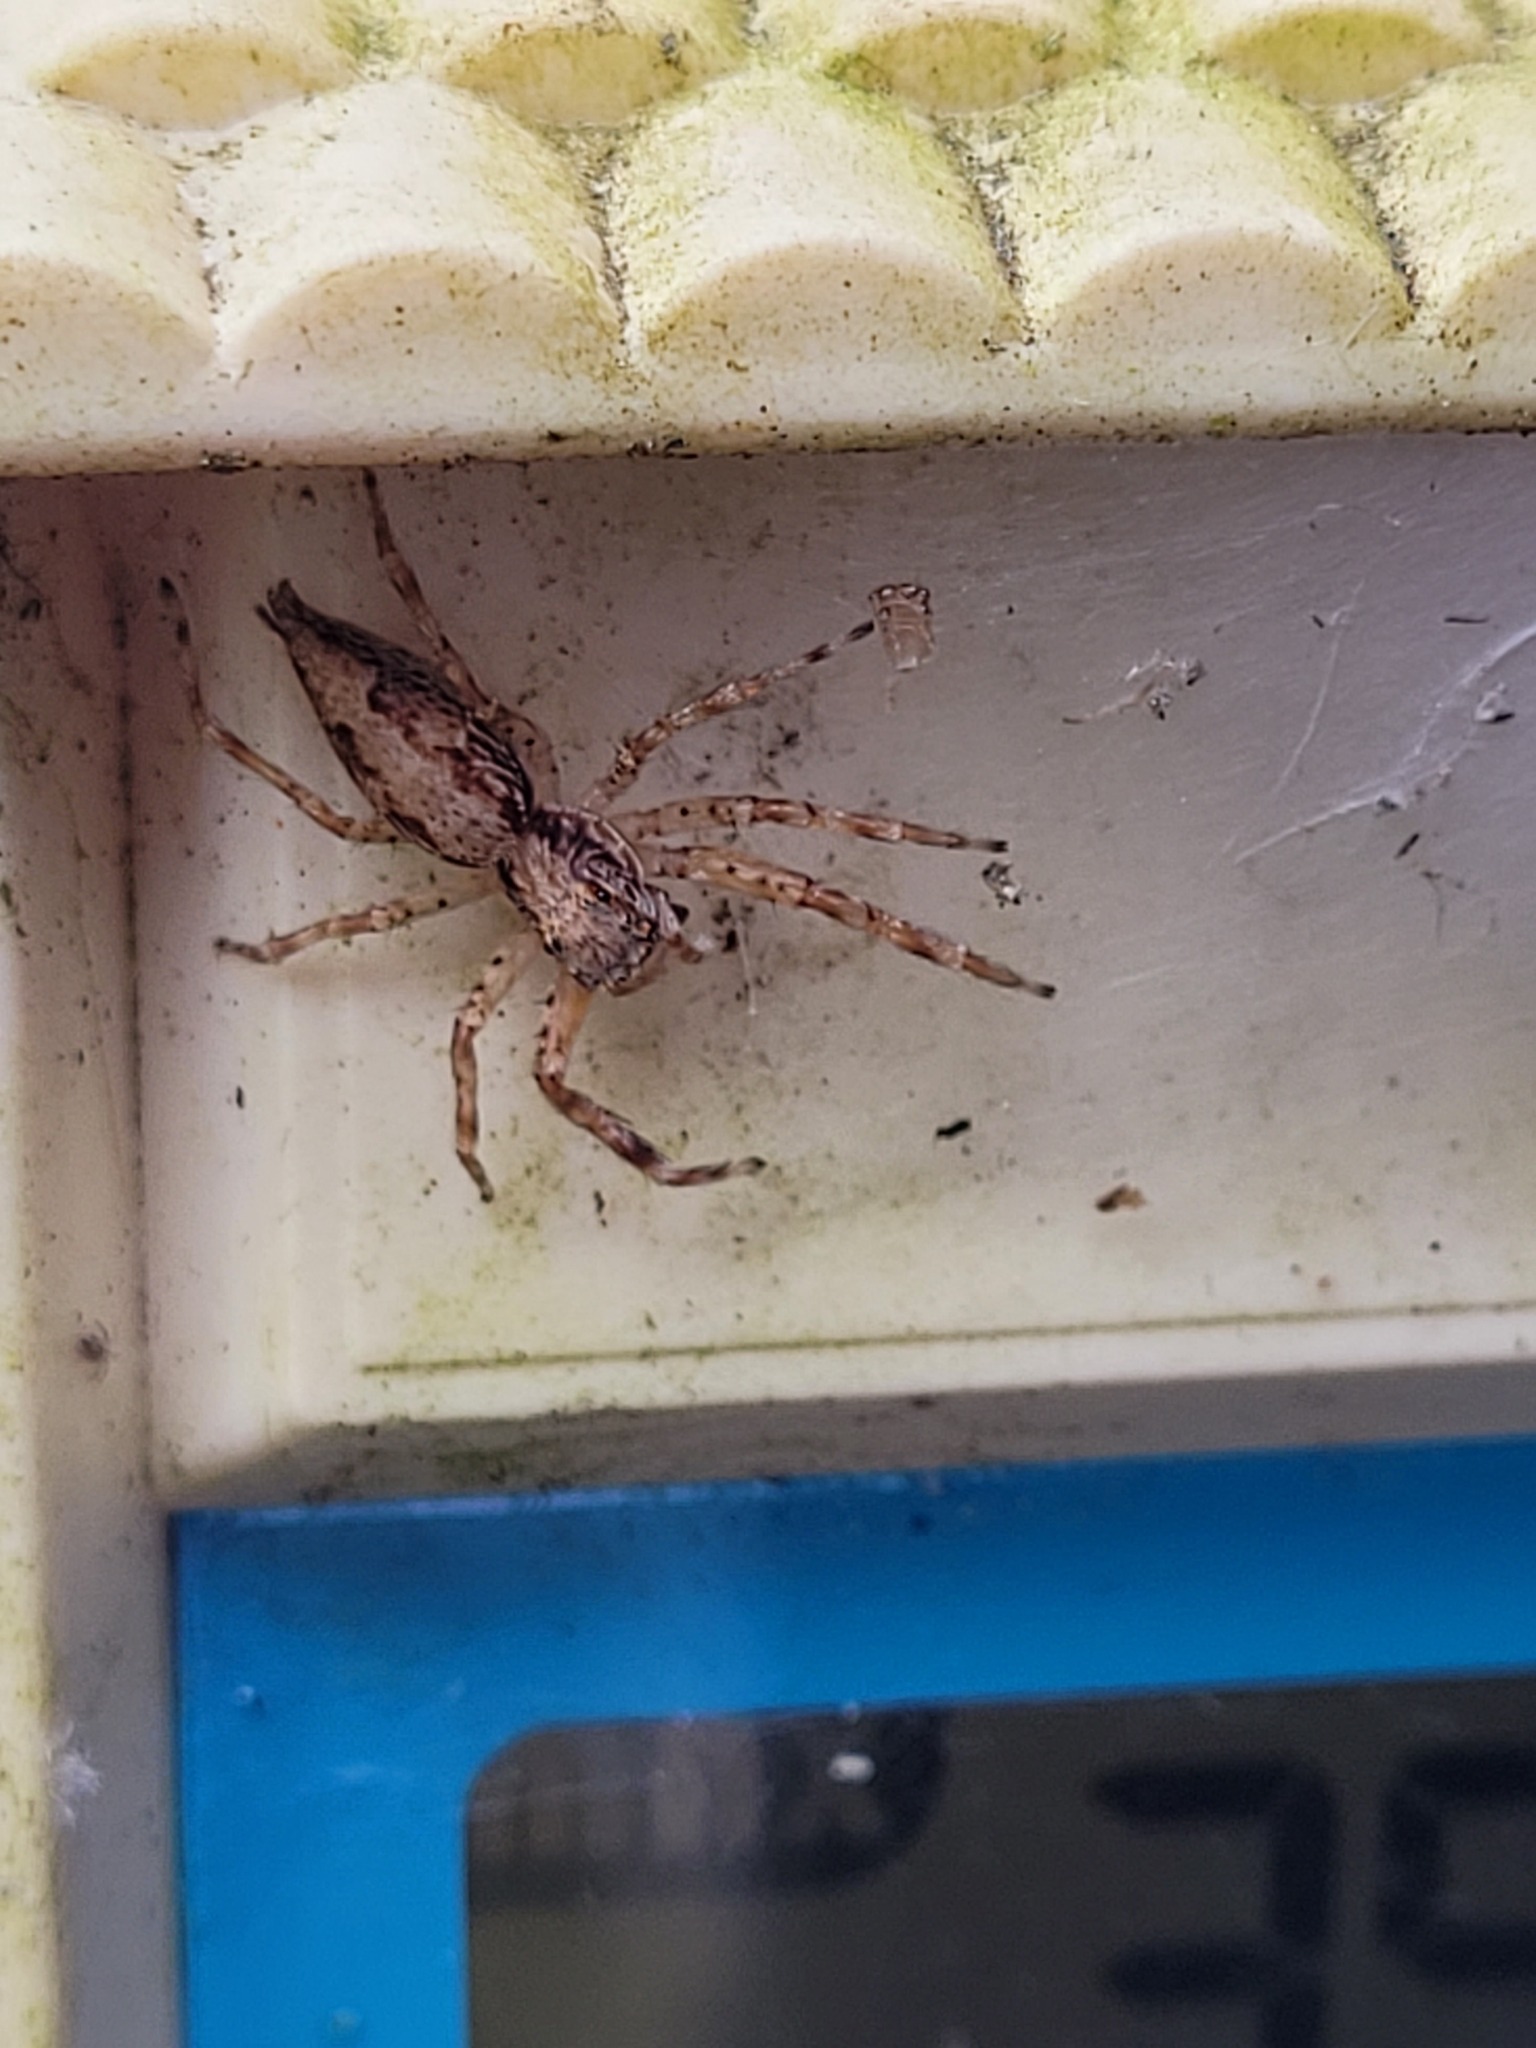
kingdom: Animalia
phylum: Arthropoda
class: Arachnida
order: Araneae
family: Salticidae
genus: Helpis
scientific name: Helpis minitabunda
